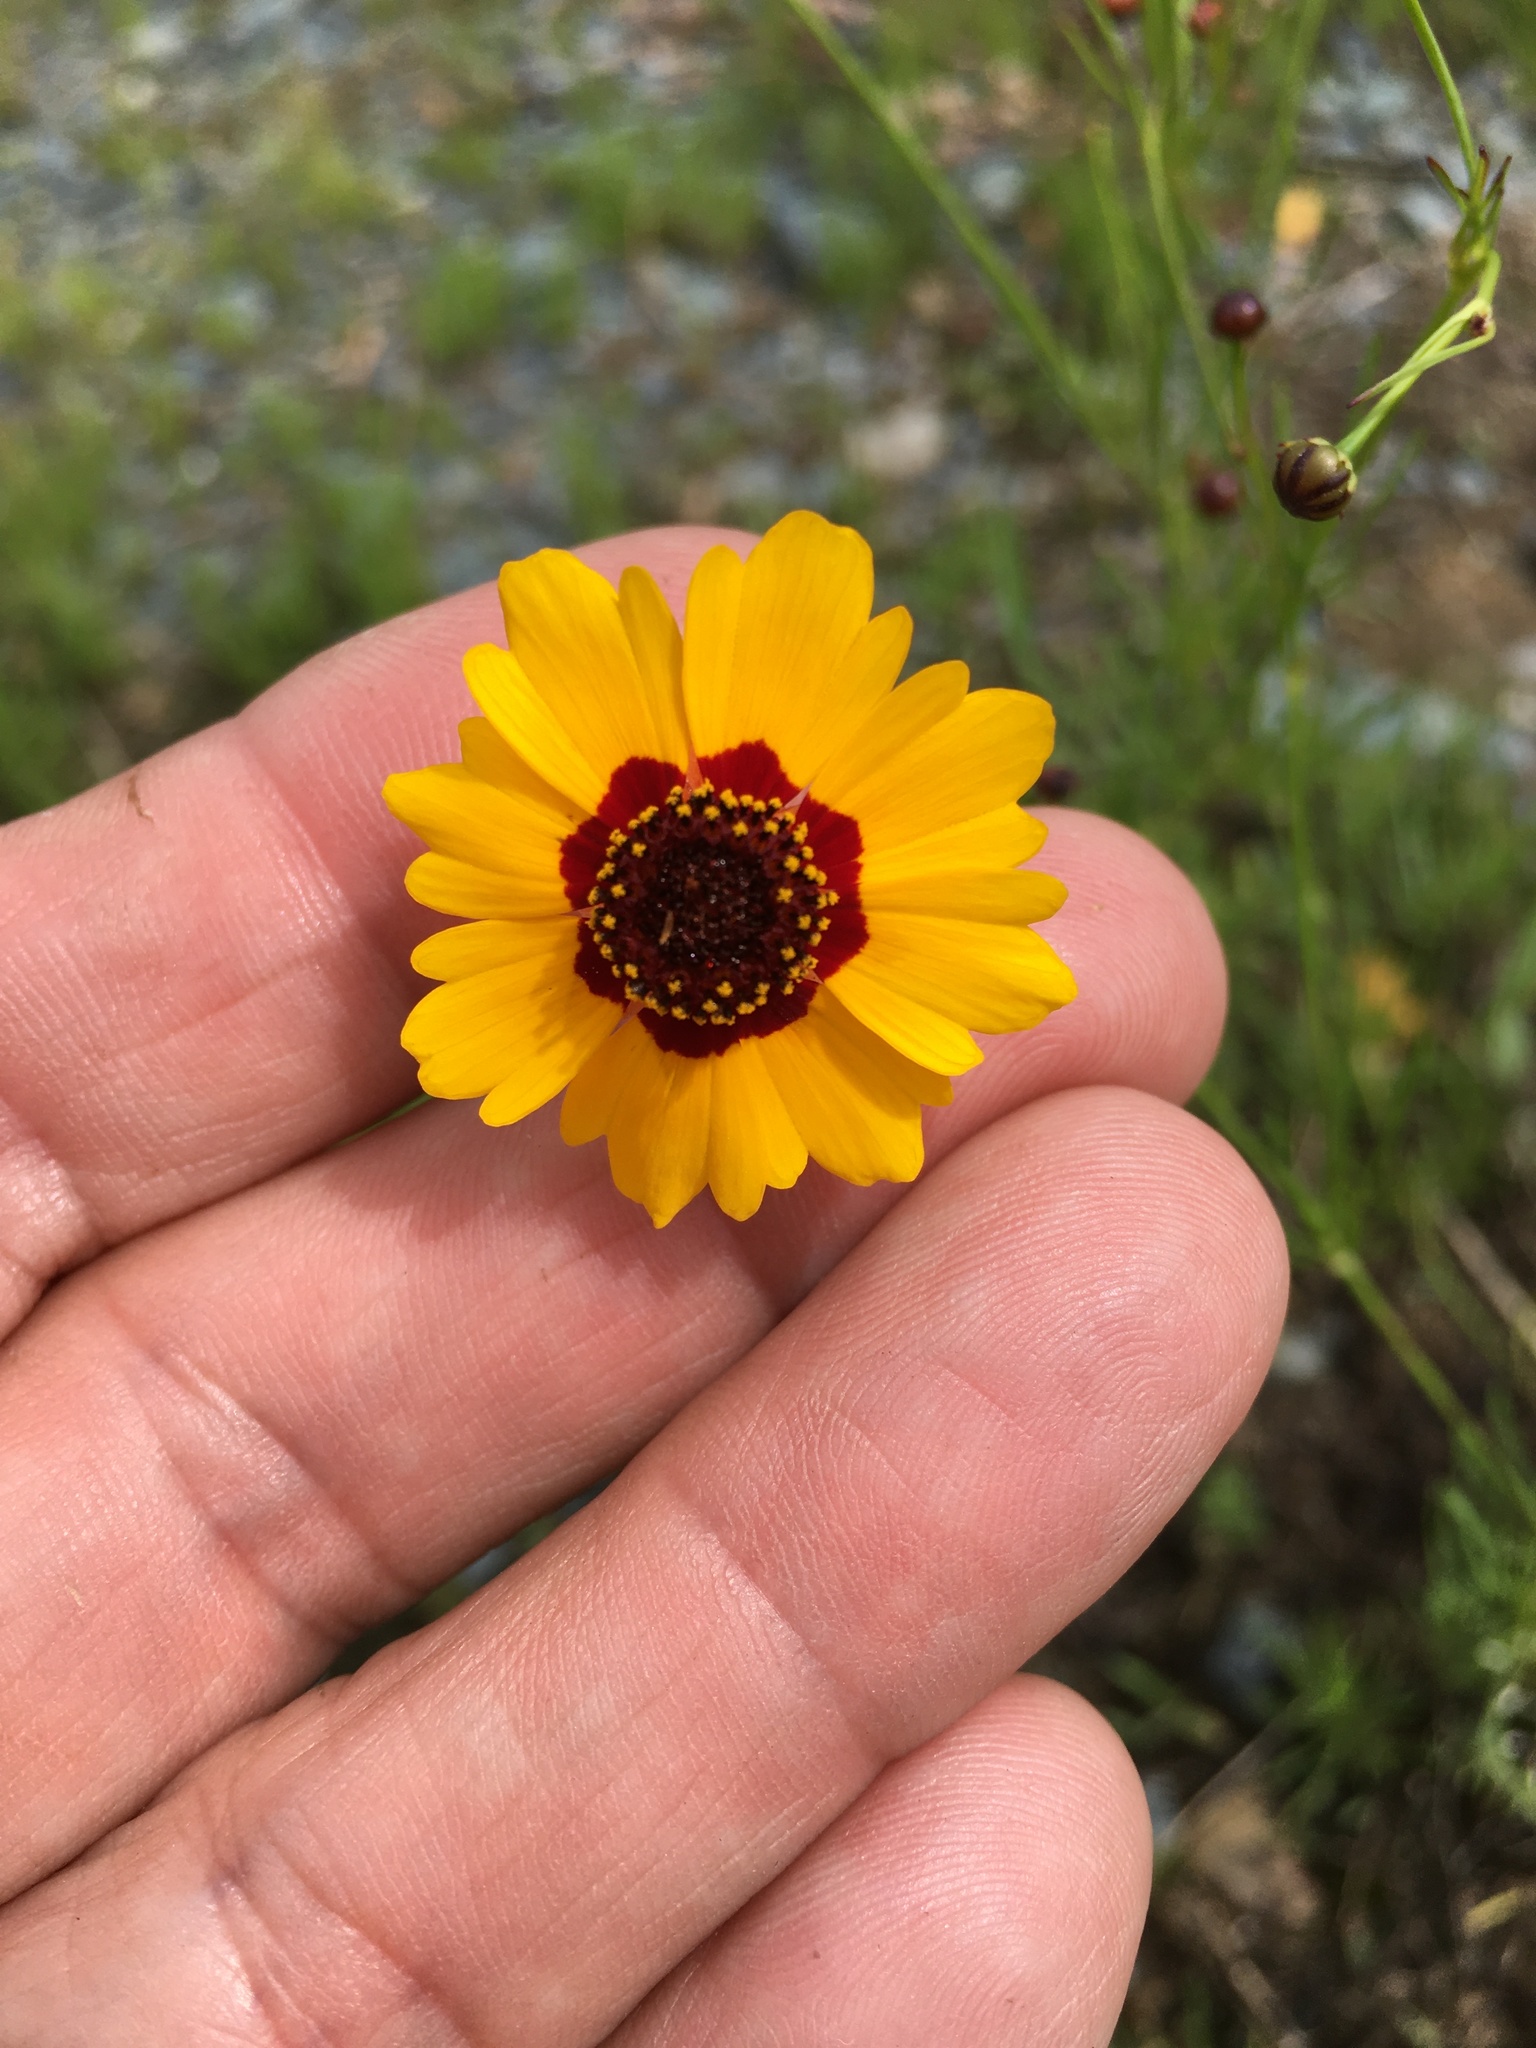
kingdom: Plantae
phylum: Tracheophyta
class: Magnoliopsida
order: Asterales
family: Asteraceae
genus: Coreopsis
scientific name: Coreopsis tinctoria
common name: Garden tickseed
